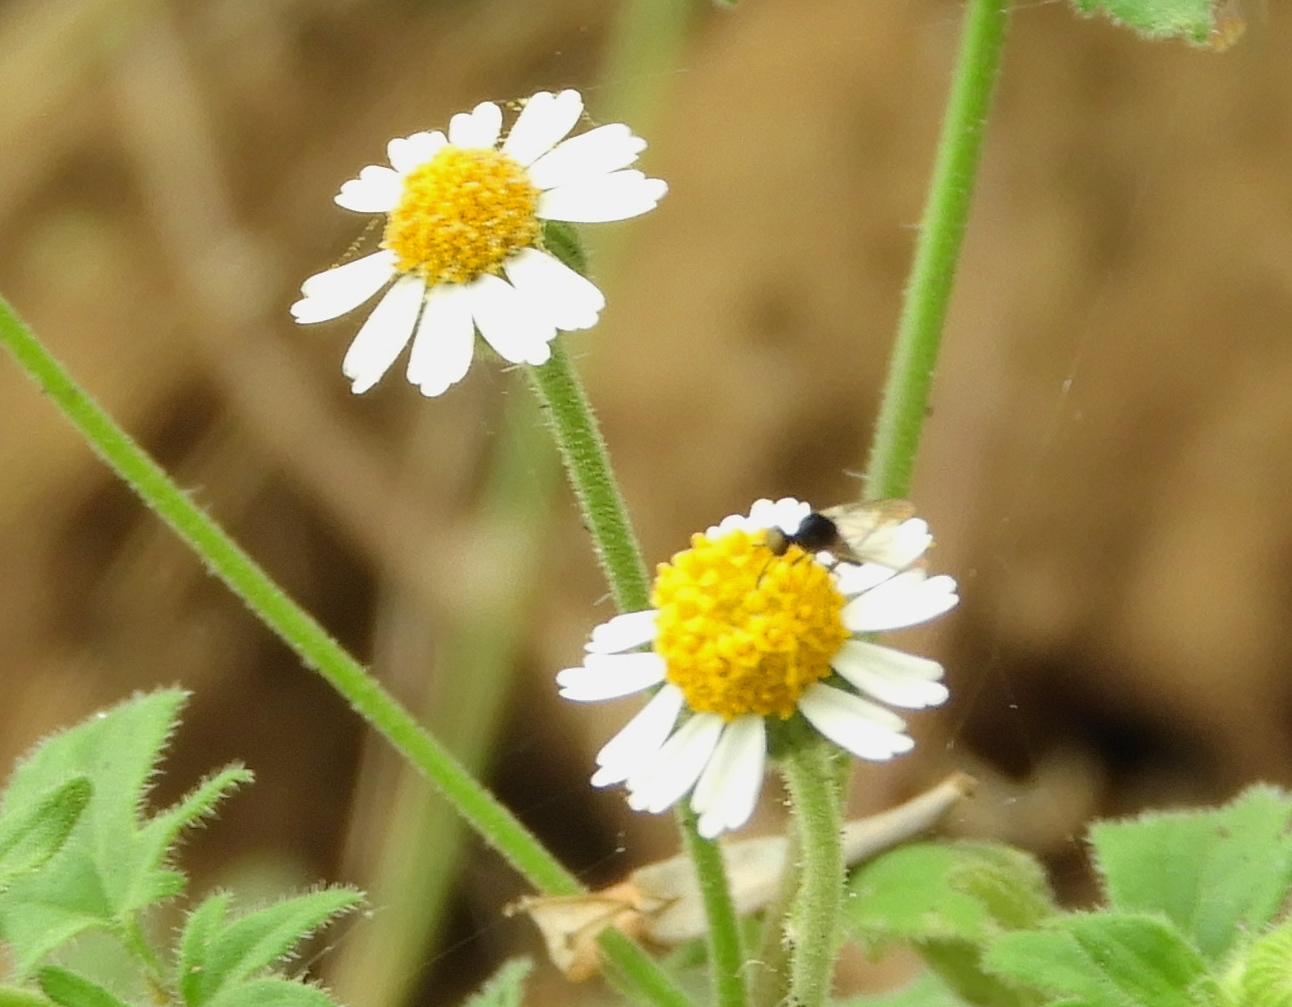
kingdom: Plantae
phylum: Tracheophyta
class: Magnoliopsida
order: Asterales
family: Asteraceae
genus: Galinsogeopsis
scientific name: Galinsogeopsis spilanthoides
